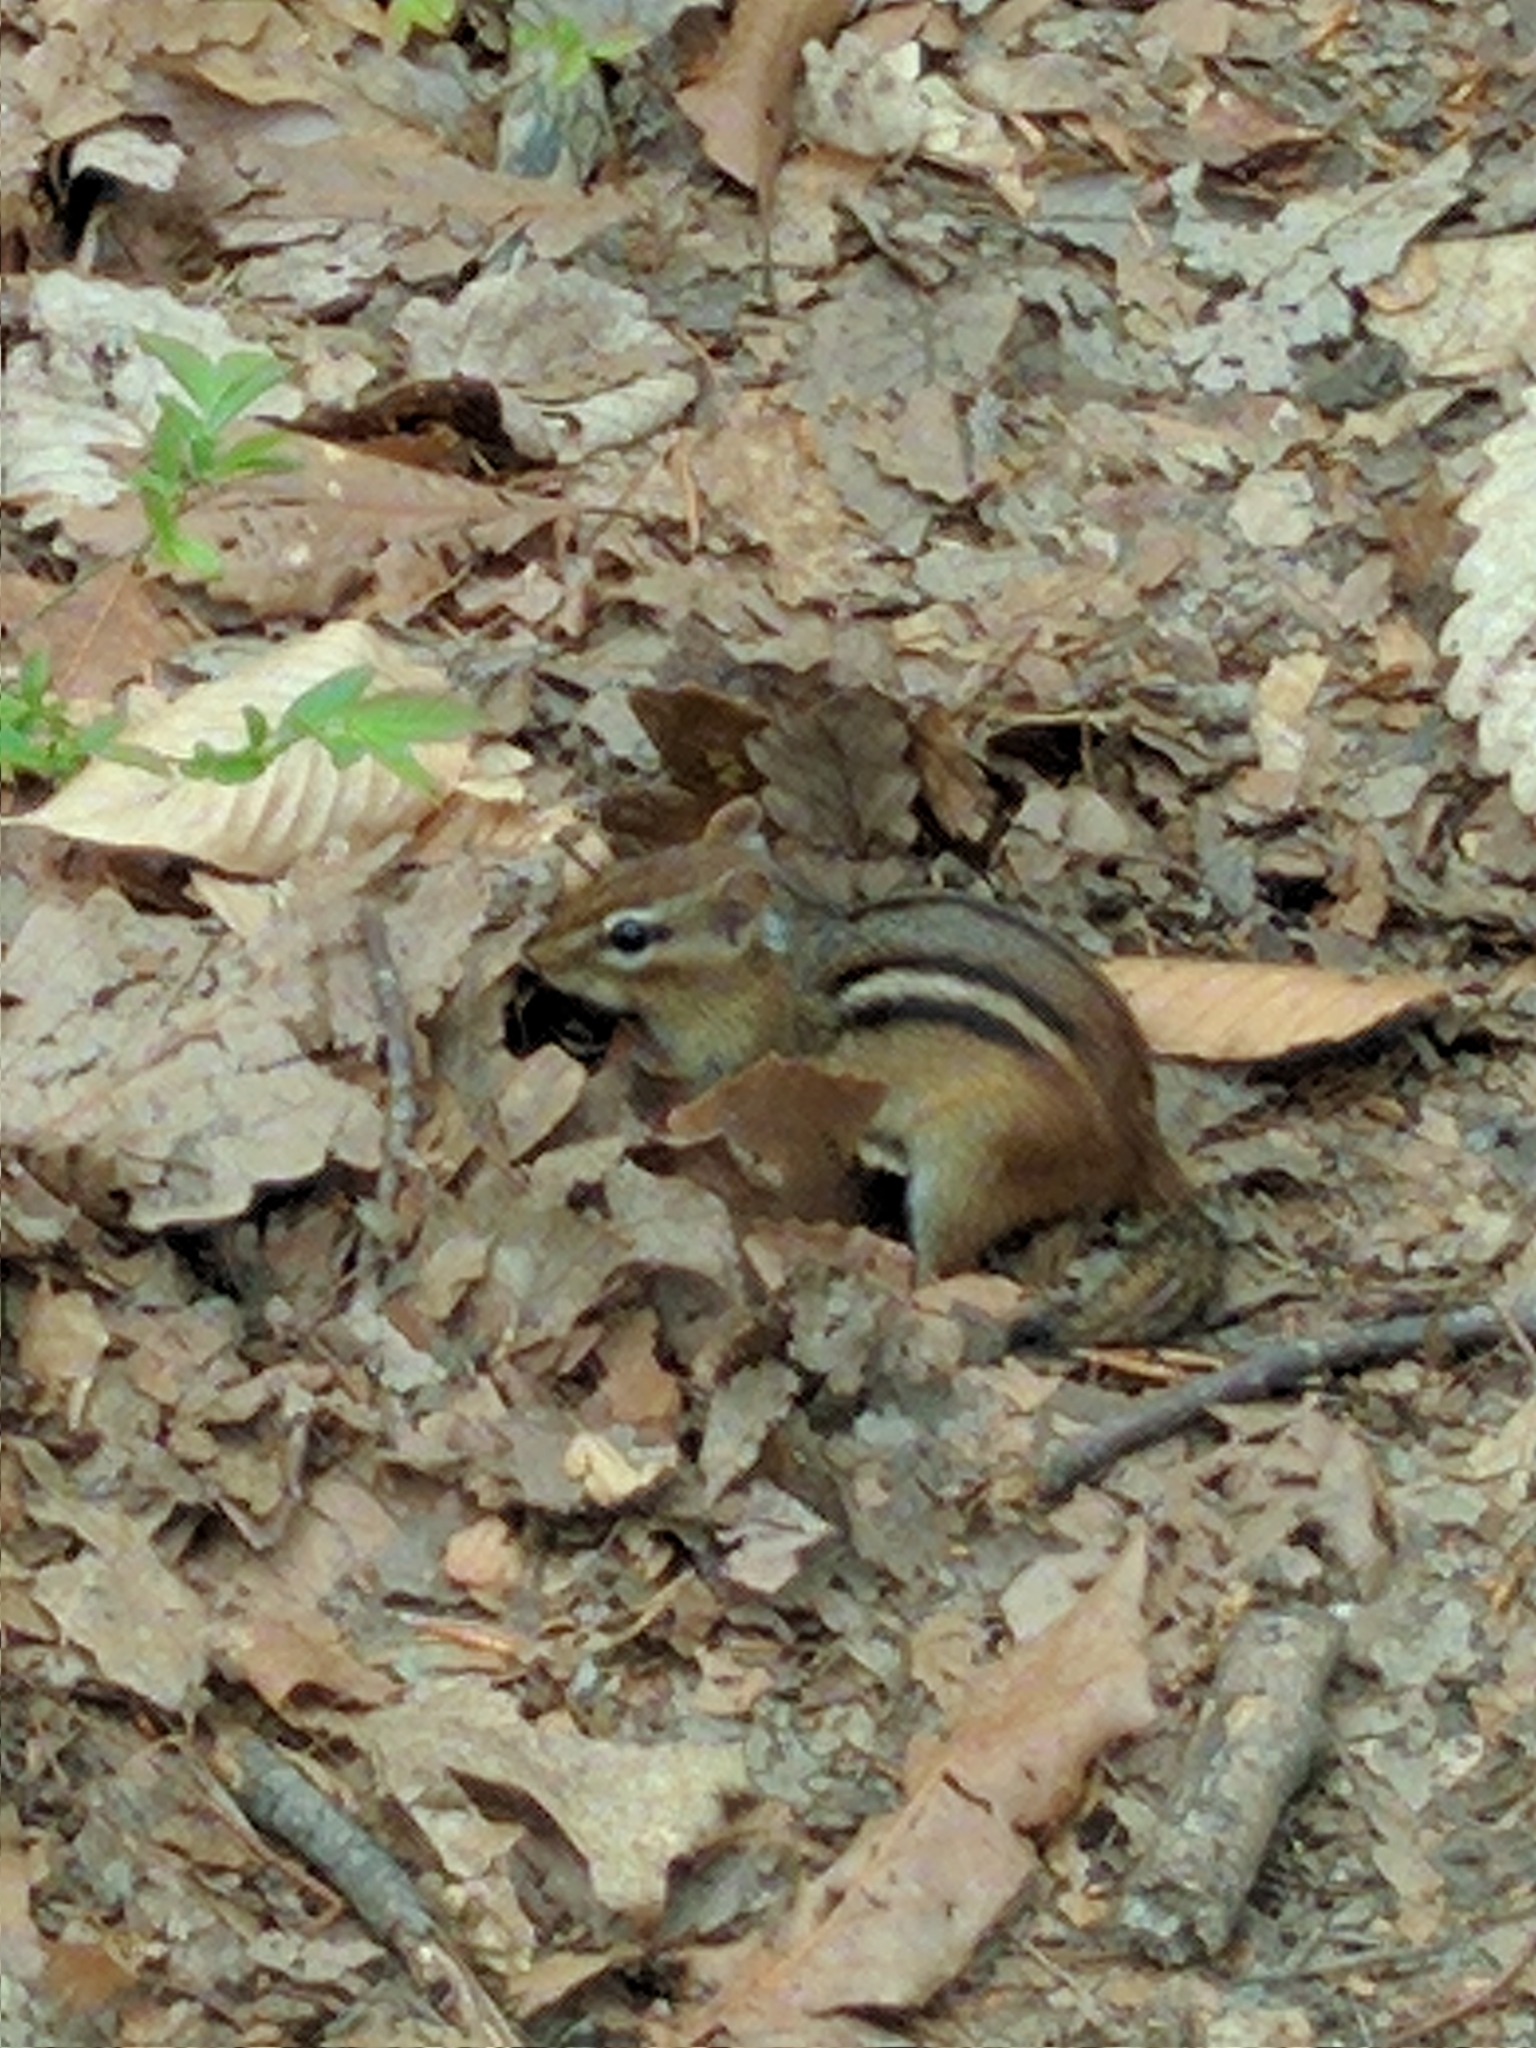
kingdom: Animalia
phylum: Chordata
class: Mammalia
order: Rodentia
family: Sciuridae
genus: Tamias
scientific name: Tamias striatus
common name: Eastern chipmunk
